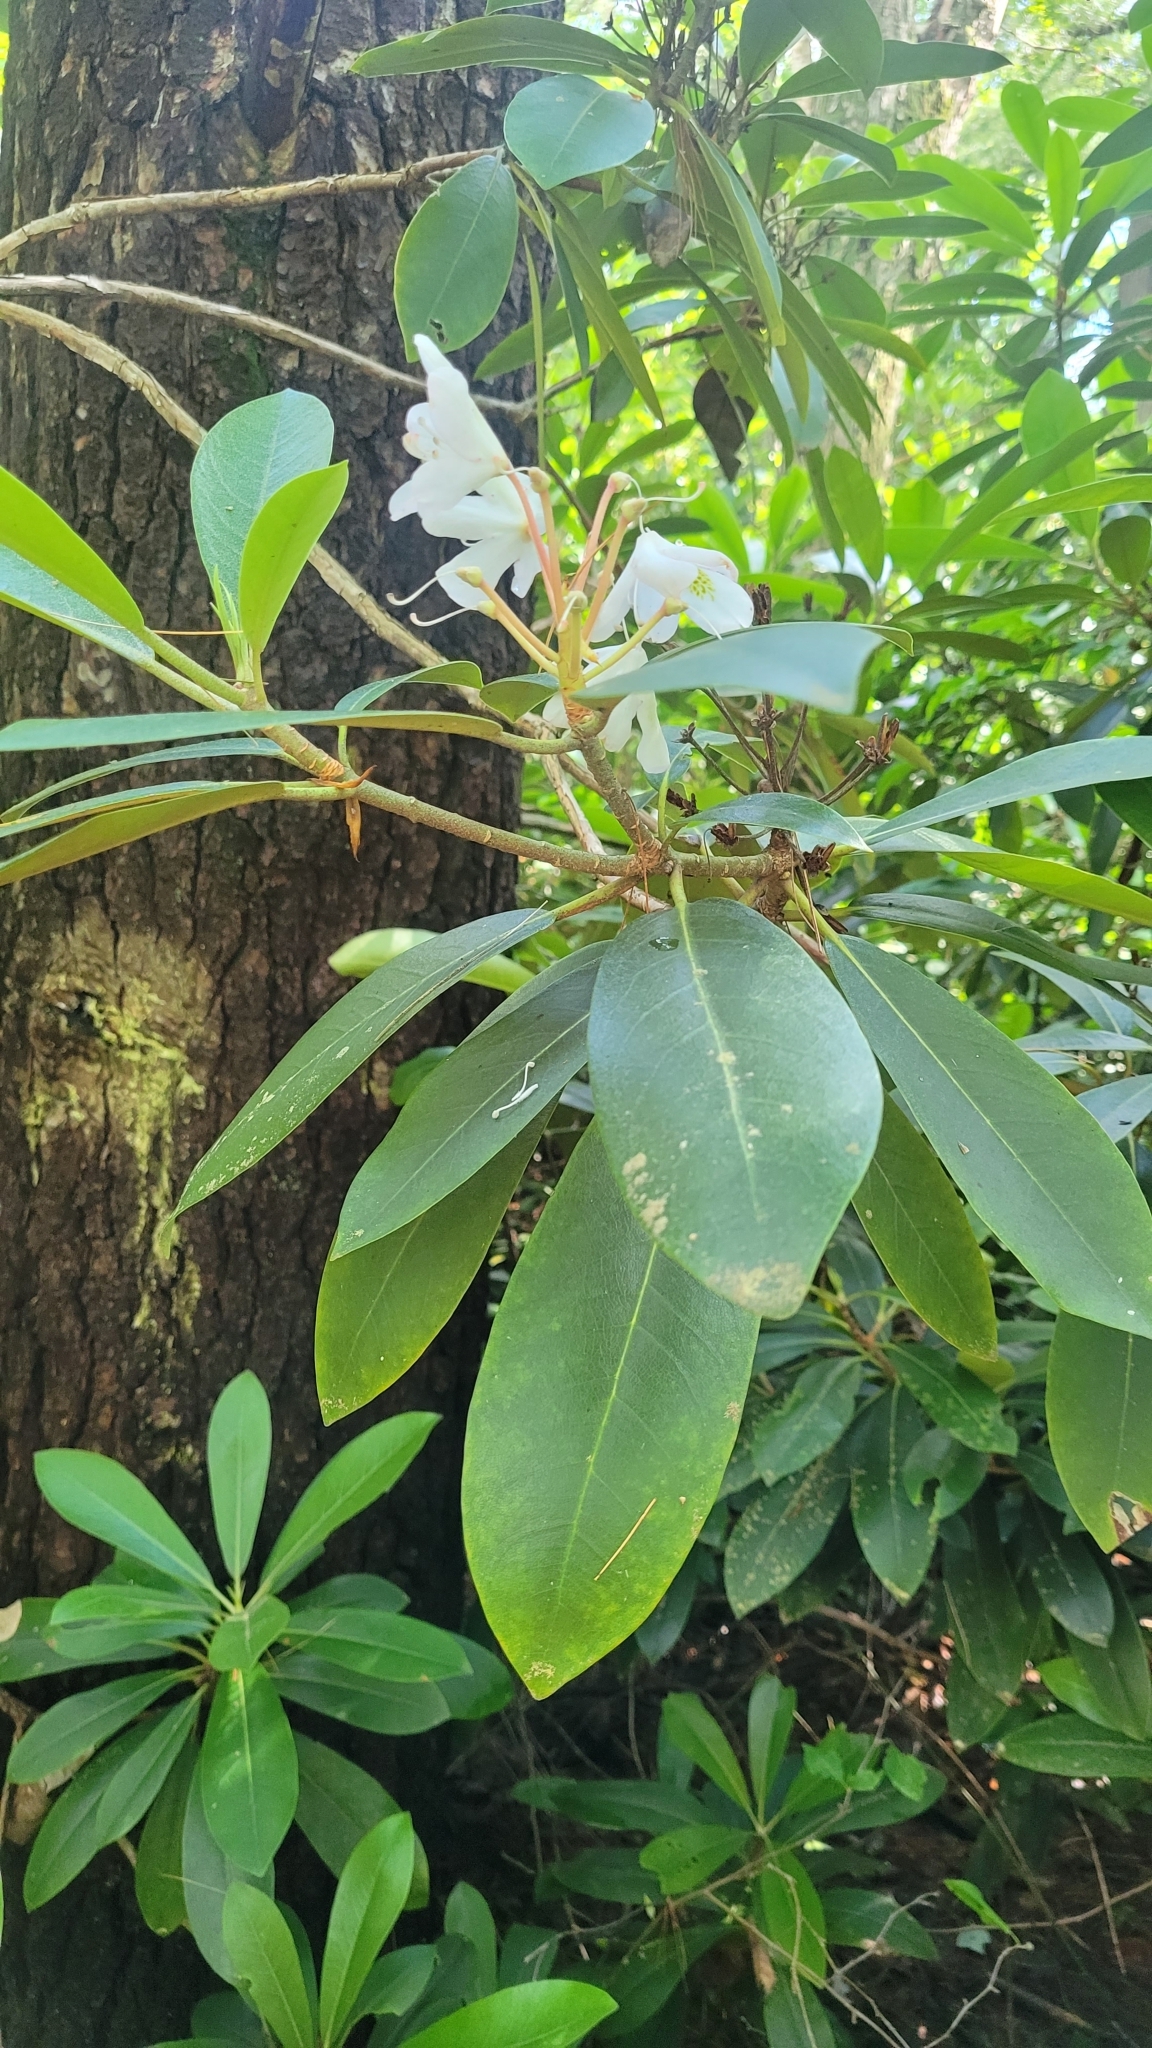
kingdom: Plantae
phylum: Tracheophyta
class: Magnoliopsida
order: Ericales
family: Ericaceae
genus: Rhododendron
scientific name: Rhododendron maximum
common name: Great rhododendron
